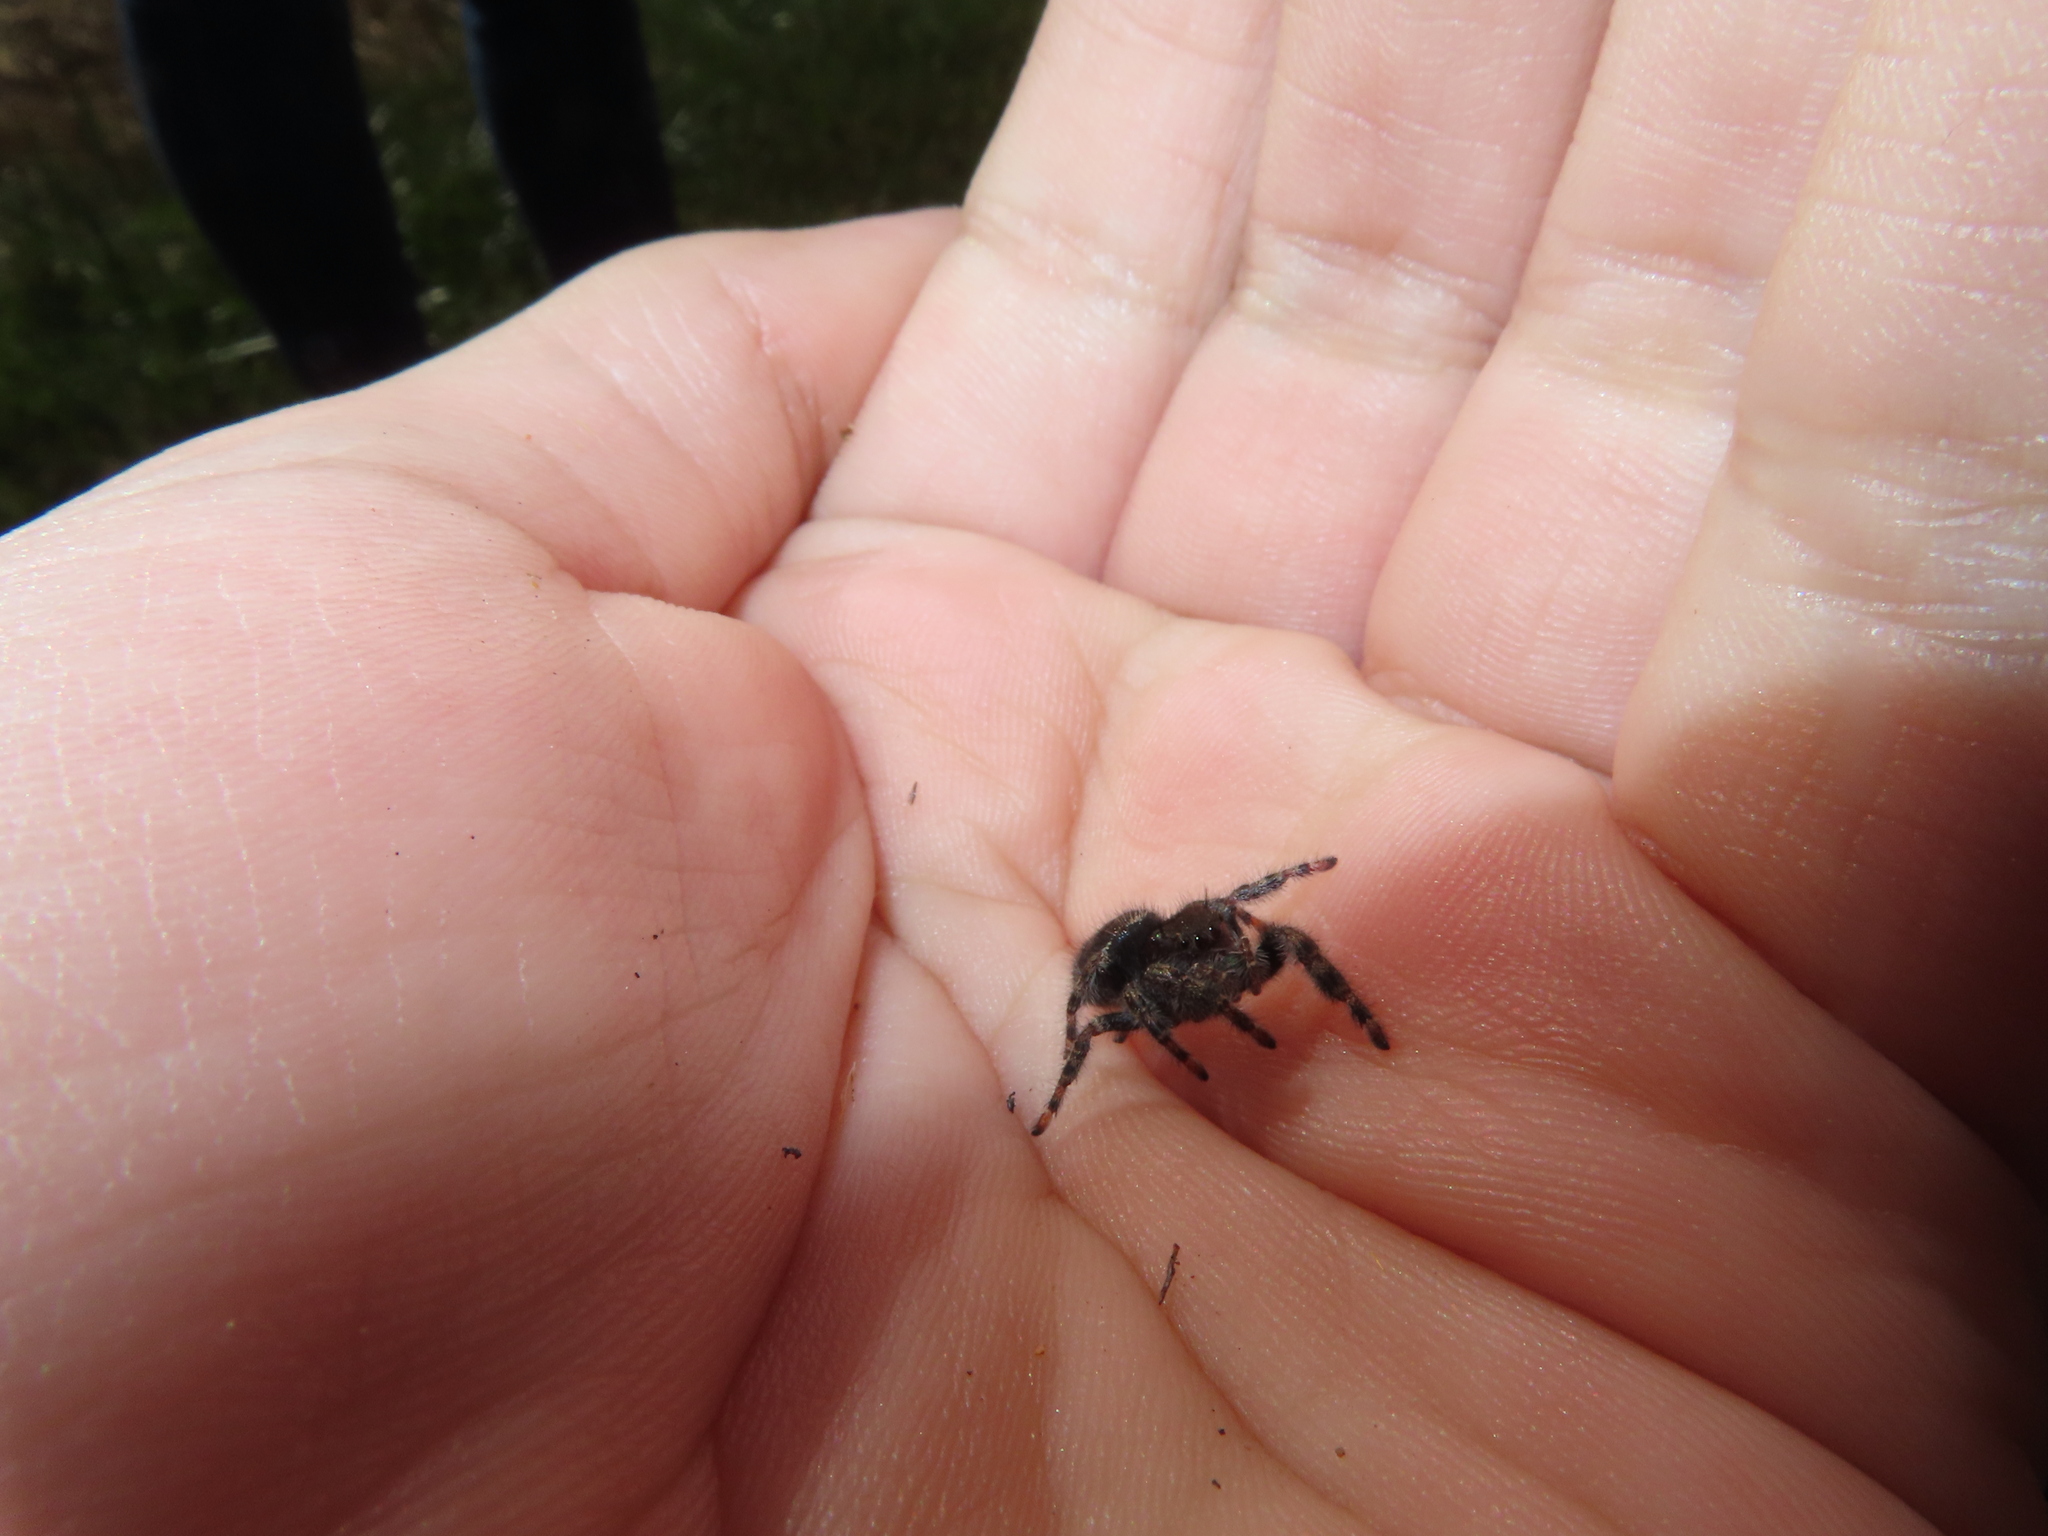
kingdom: Animalia
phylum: Arthropoda
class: Arachnida
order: Araneae
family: Salticidae
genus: Phidippus
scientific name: Phidippus audax
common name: Bold jumper
